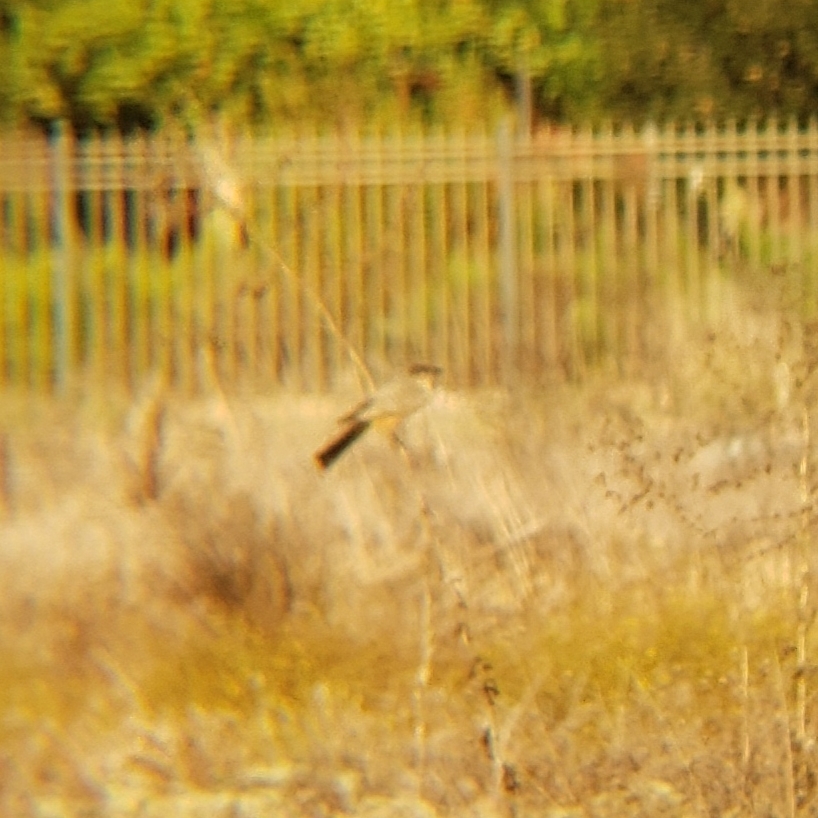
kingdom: Animalia
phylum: Chordata
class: Aves
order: Passeriformes
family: Tyrannidae
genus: Sayornis
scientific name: Sayornis saya
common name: Say's phoebe
